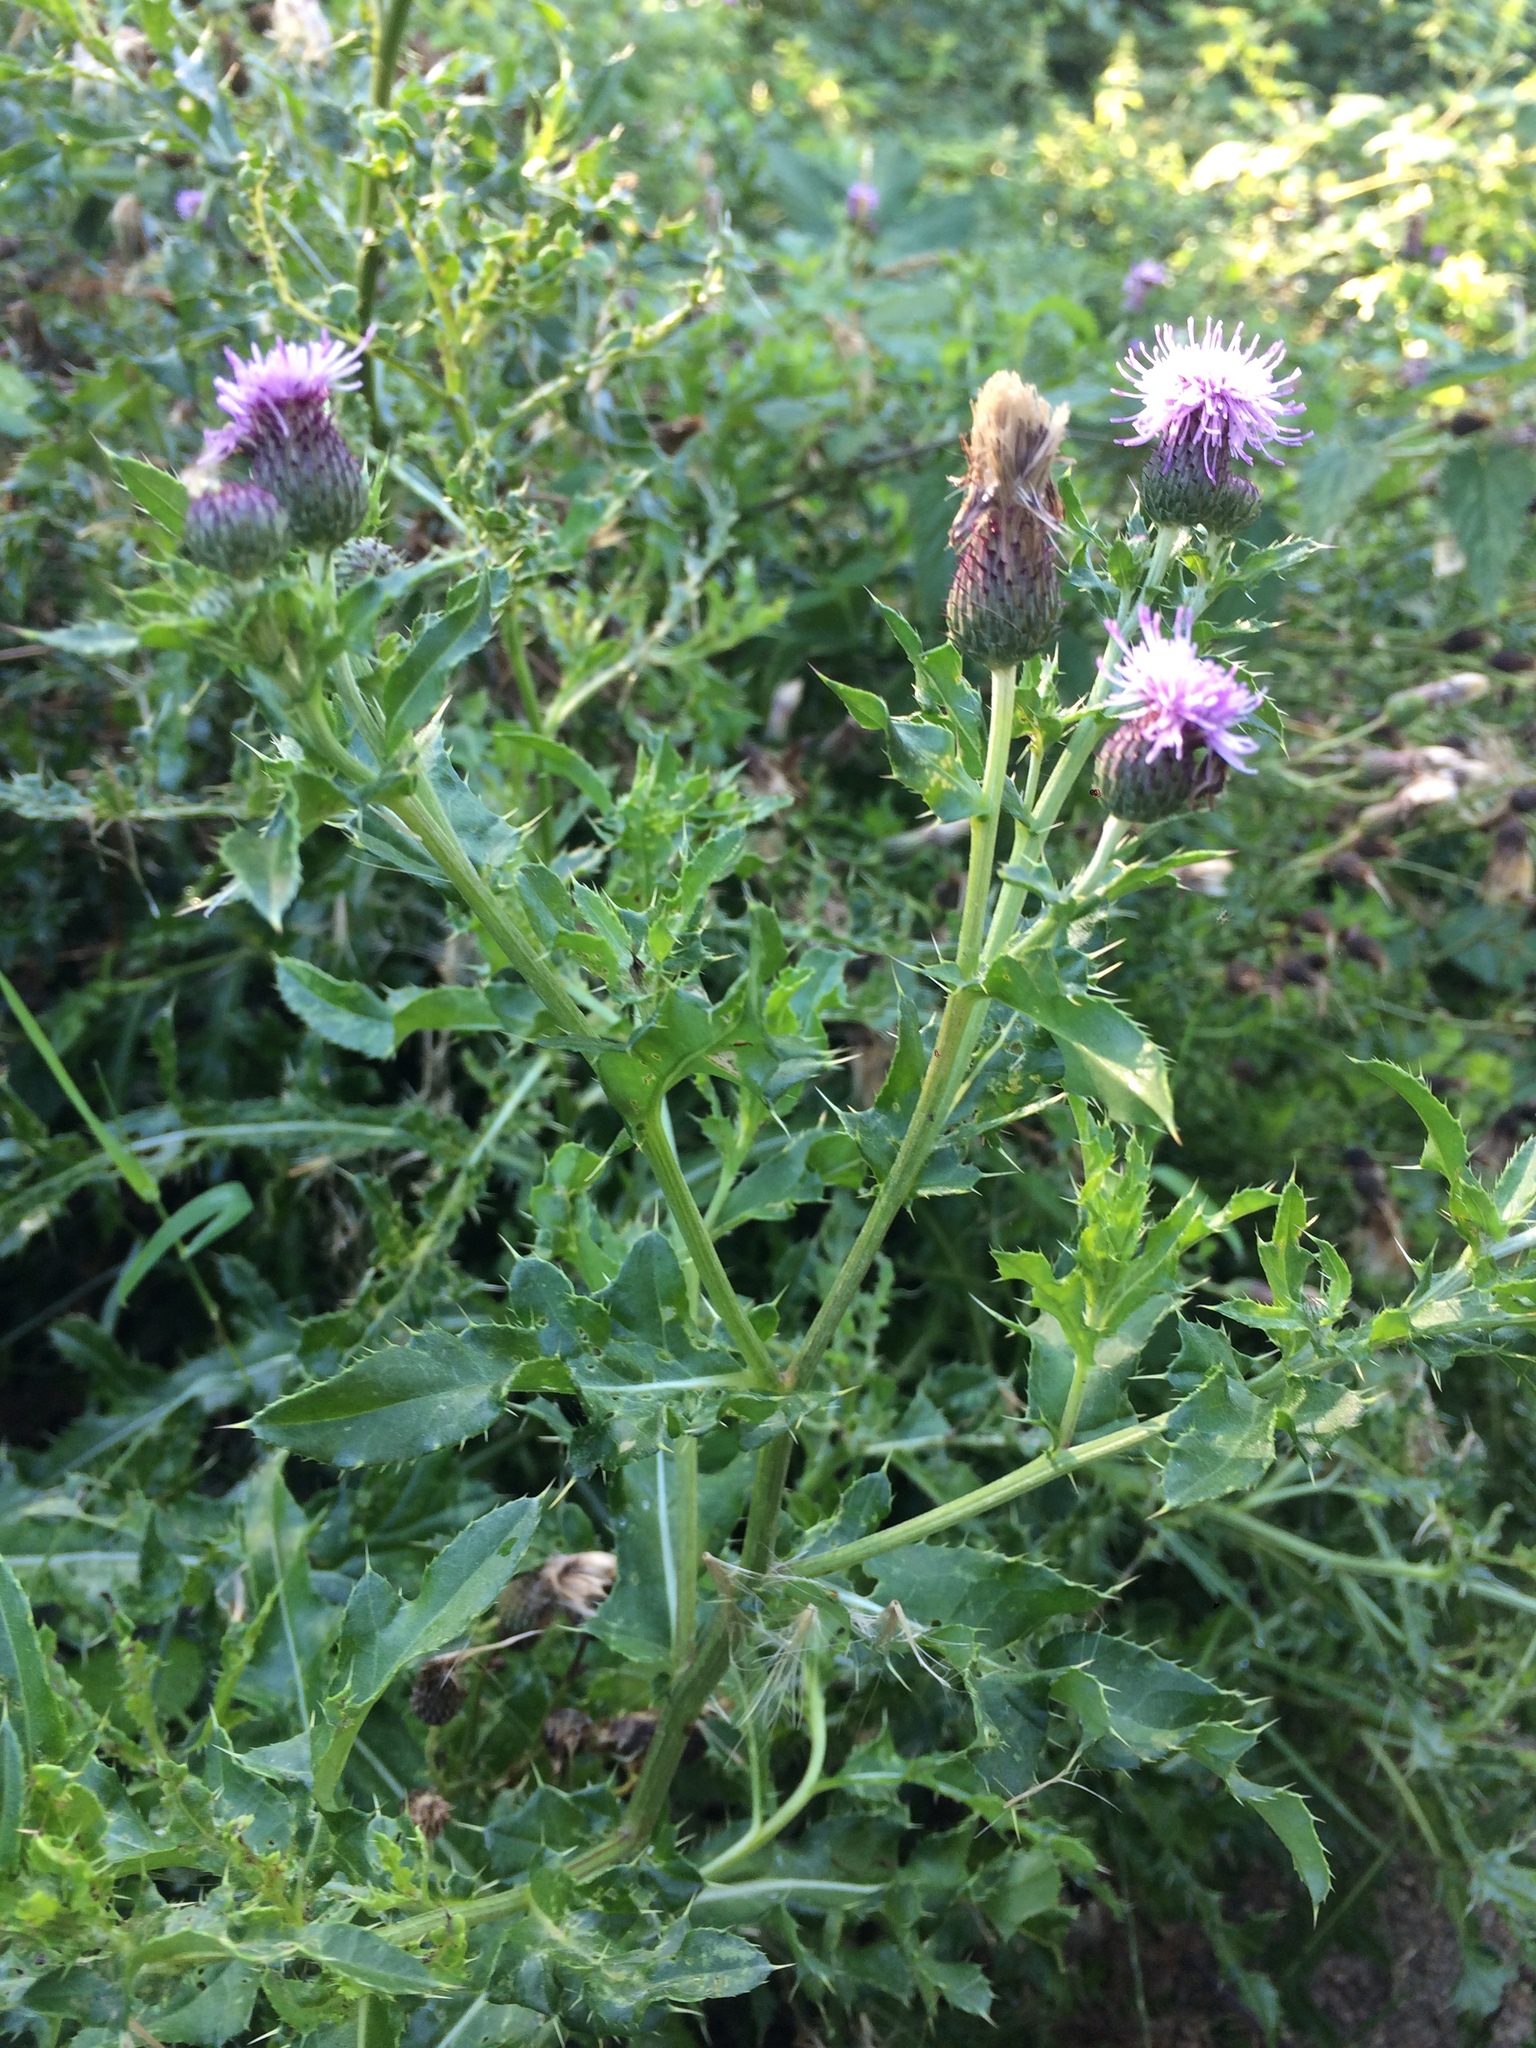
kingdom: Plantae
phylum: Tracheophyta
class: Magnoliopsida
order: Asterales
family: Asteraceae
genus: Cirsium
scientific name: Cirsium arvense
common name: Creeping thistle
